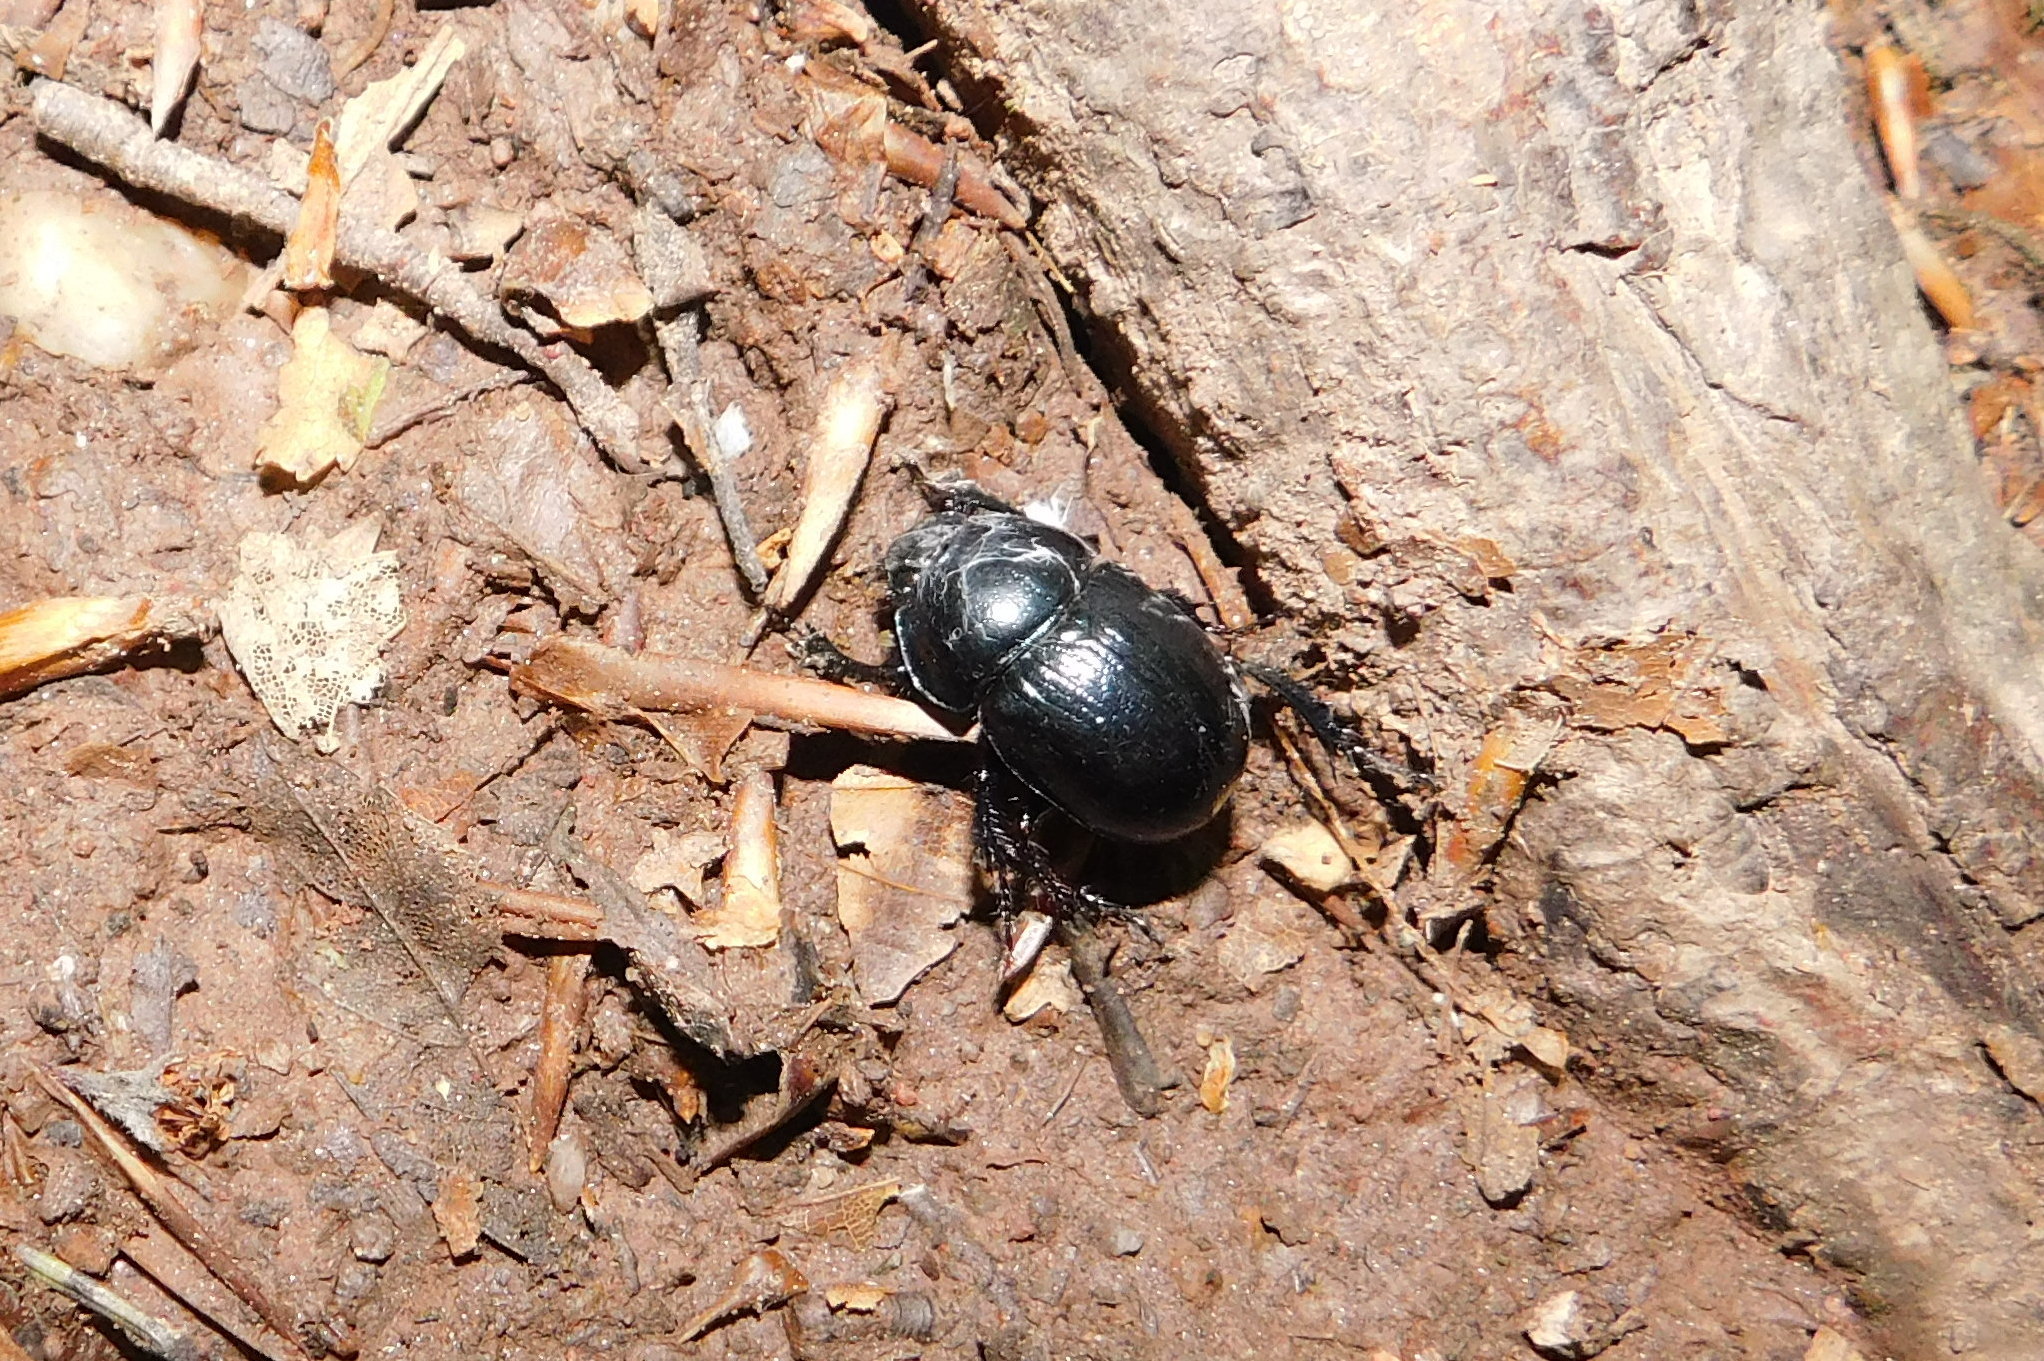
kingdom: Animalia
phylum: Arthropoda
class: Insecta
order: Coleoptera
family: Geotrupidae
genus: Anoplotrupes
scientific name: Anoplotrupes stercorosus
